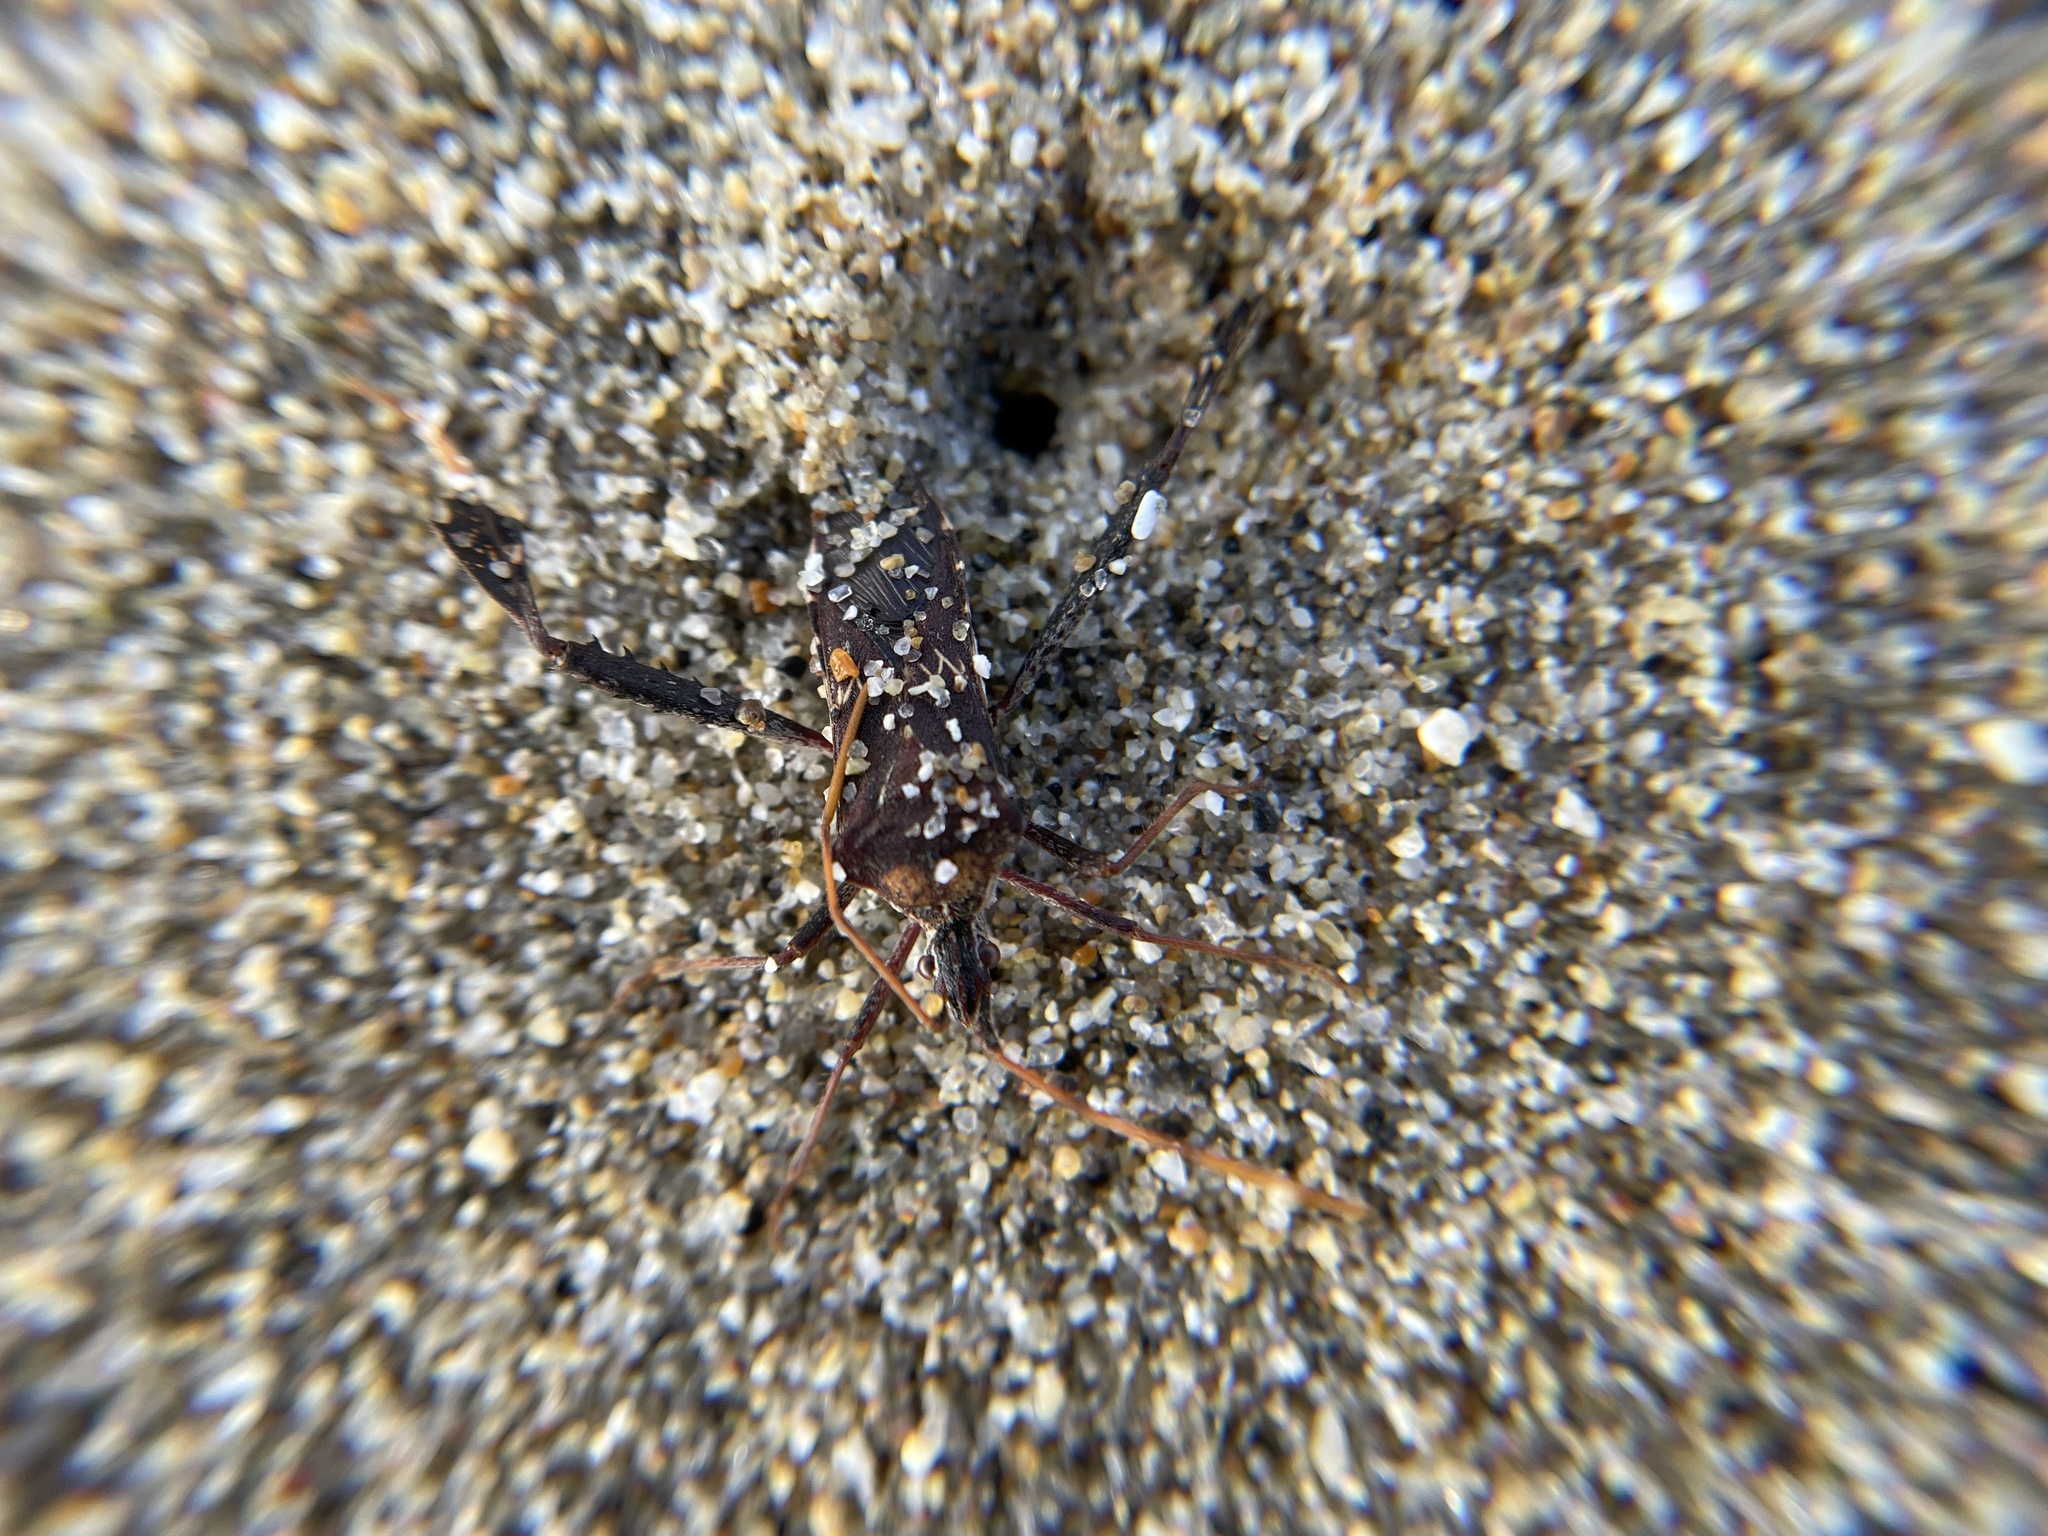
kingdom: Animalia
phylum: Arthropoda
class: Insecta
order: Hemiptera
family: Coreidae
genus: Leptoglossus
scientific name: Leptoglossus zonatus
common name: Large-legged bug
